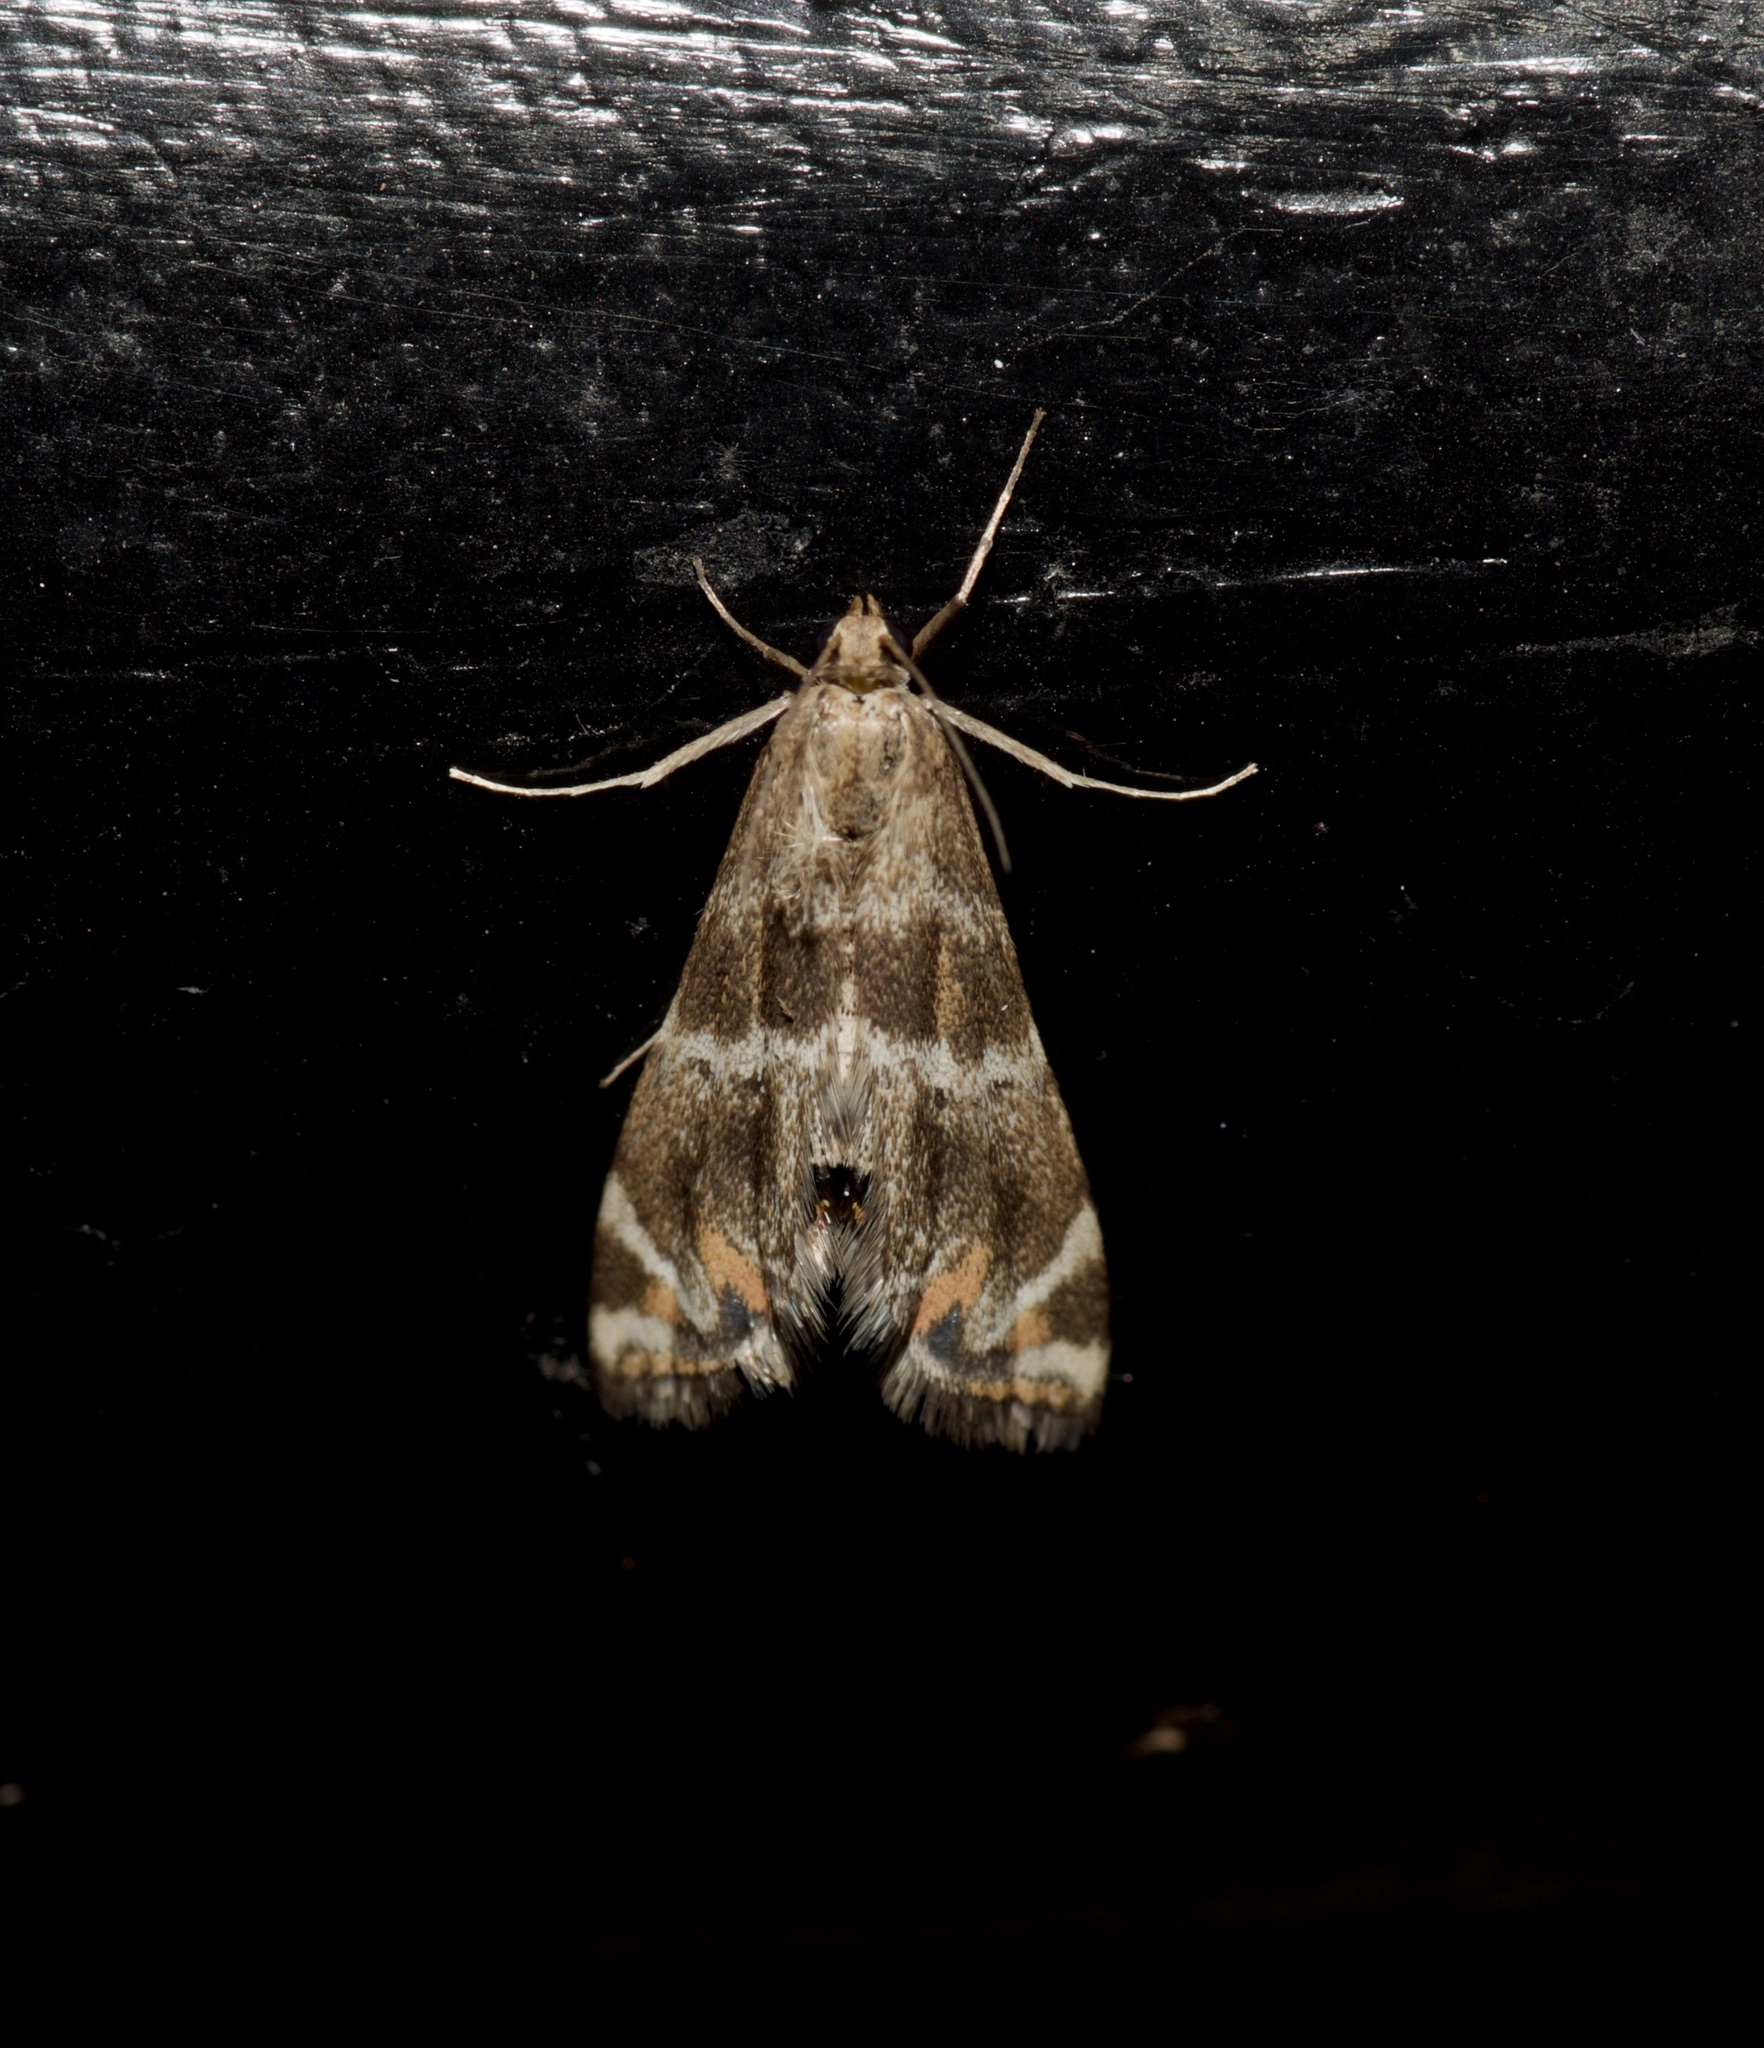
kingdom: Animalia
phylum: Arthropoda
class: Insecta
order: Lepidoptera
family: Crambidae
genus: Petrophila
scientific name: Petrophila jaliscalis
